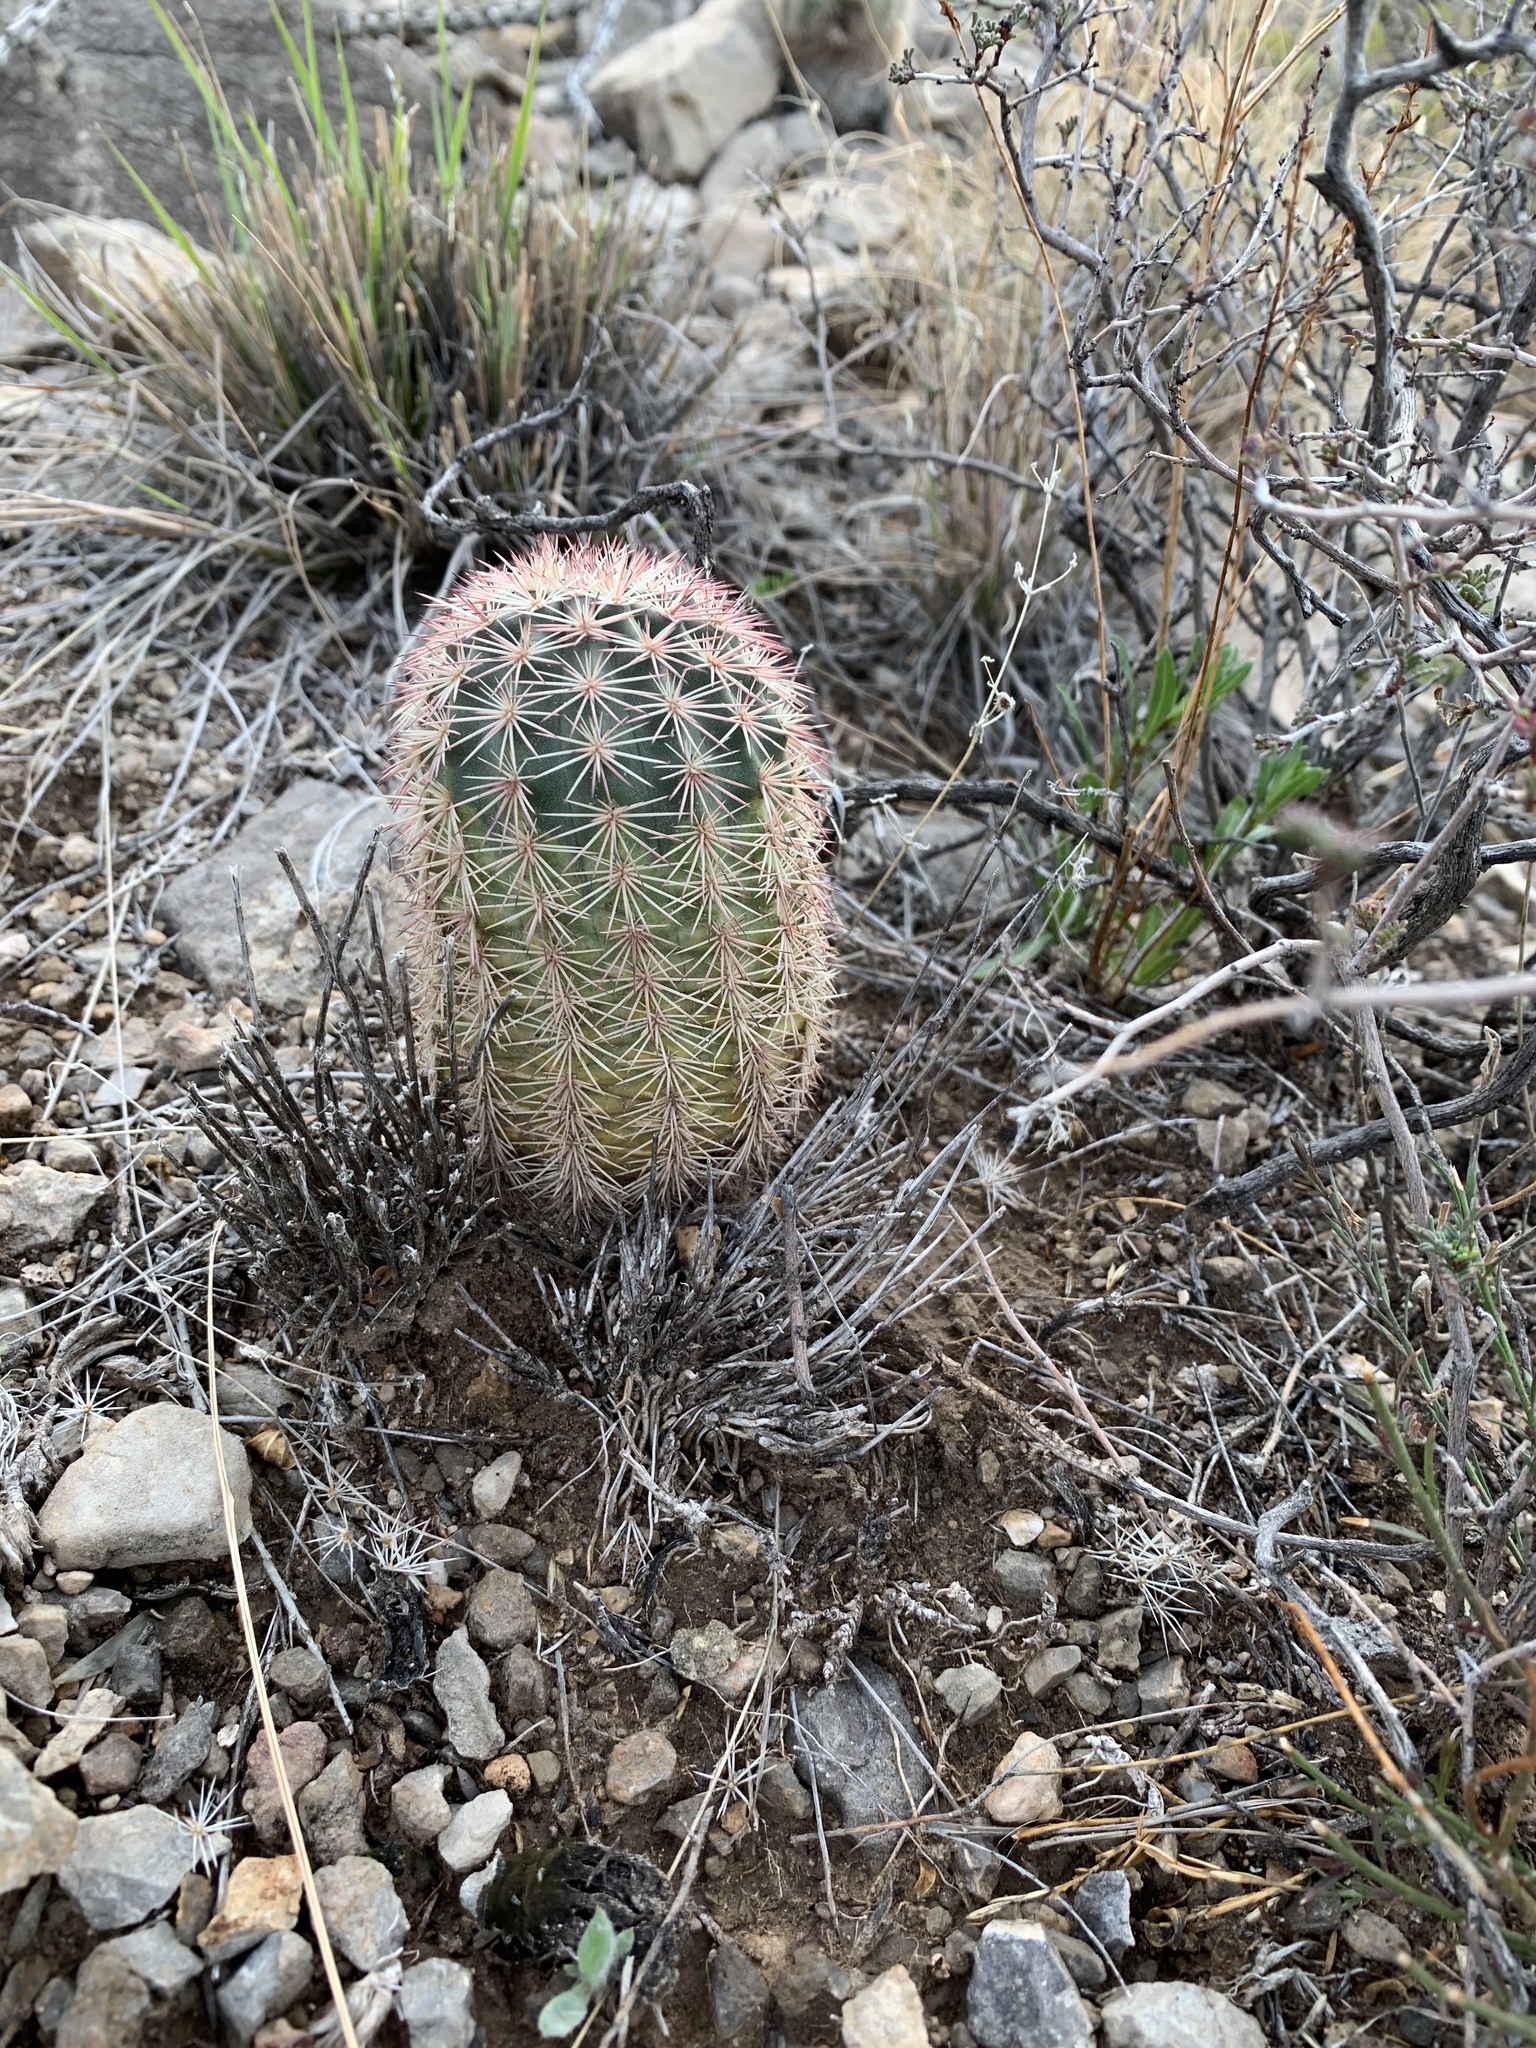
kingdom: Plantae
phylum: Tracheophyta
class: Magnoliopsida
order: Caryophyllales
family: Cactaceae
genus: Echinocereus
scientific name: Echinocereus dasyacanthus
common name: Spiny hedgehog cactus
